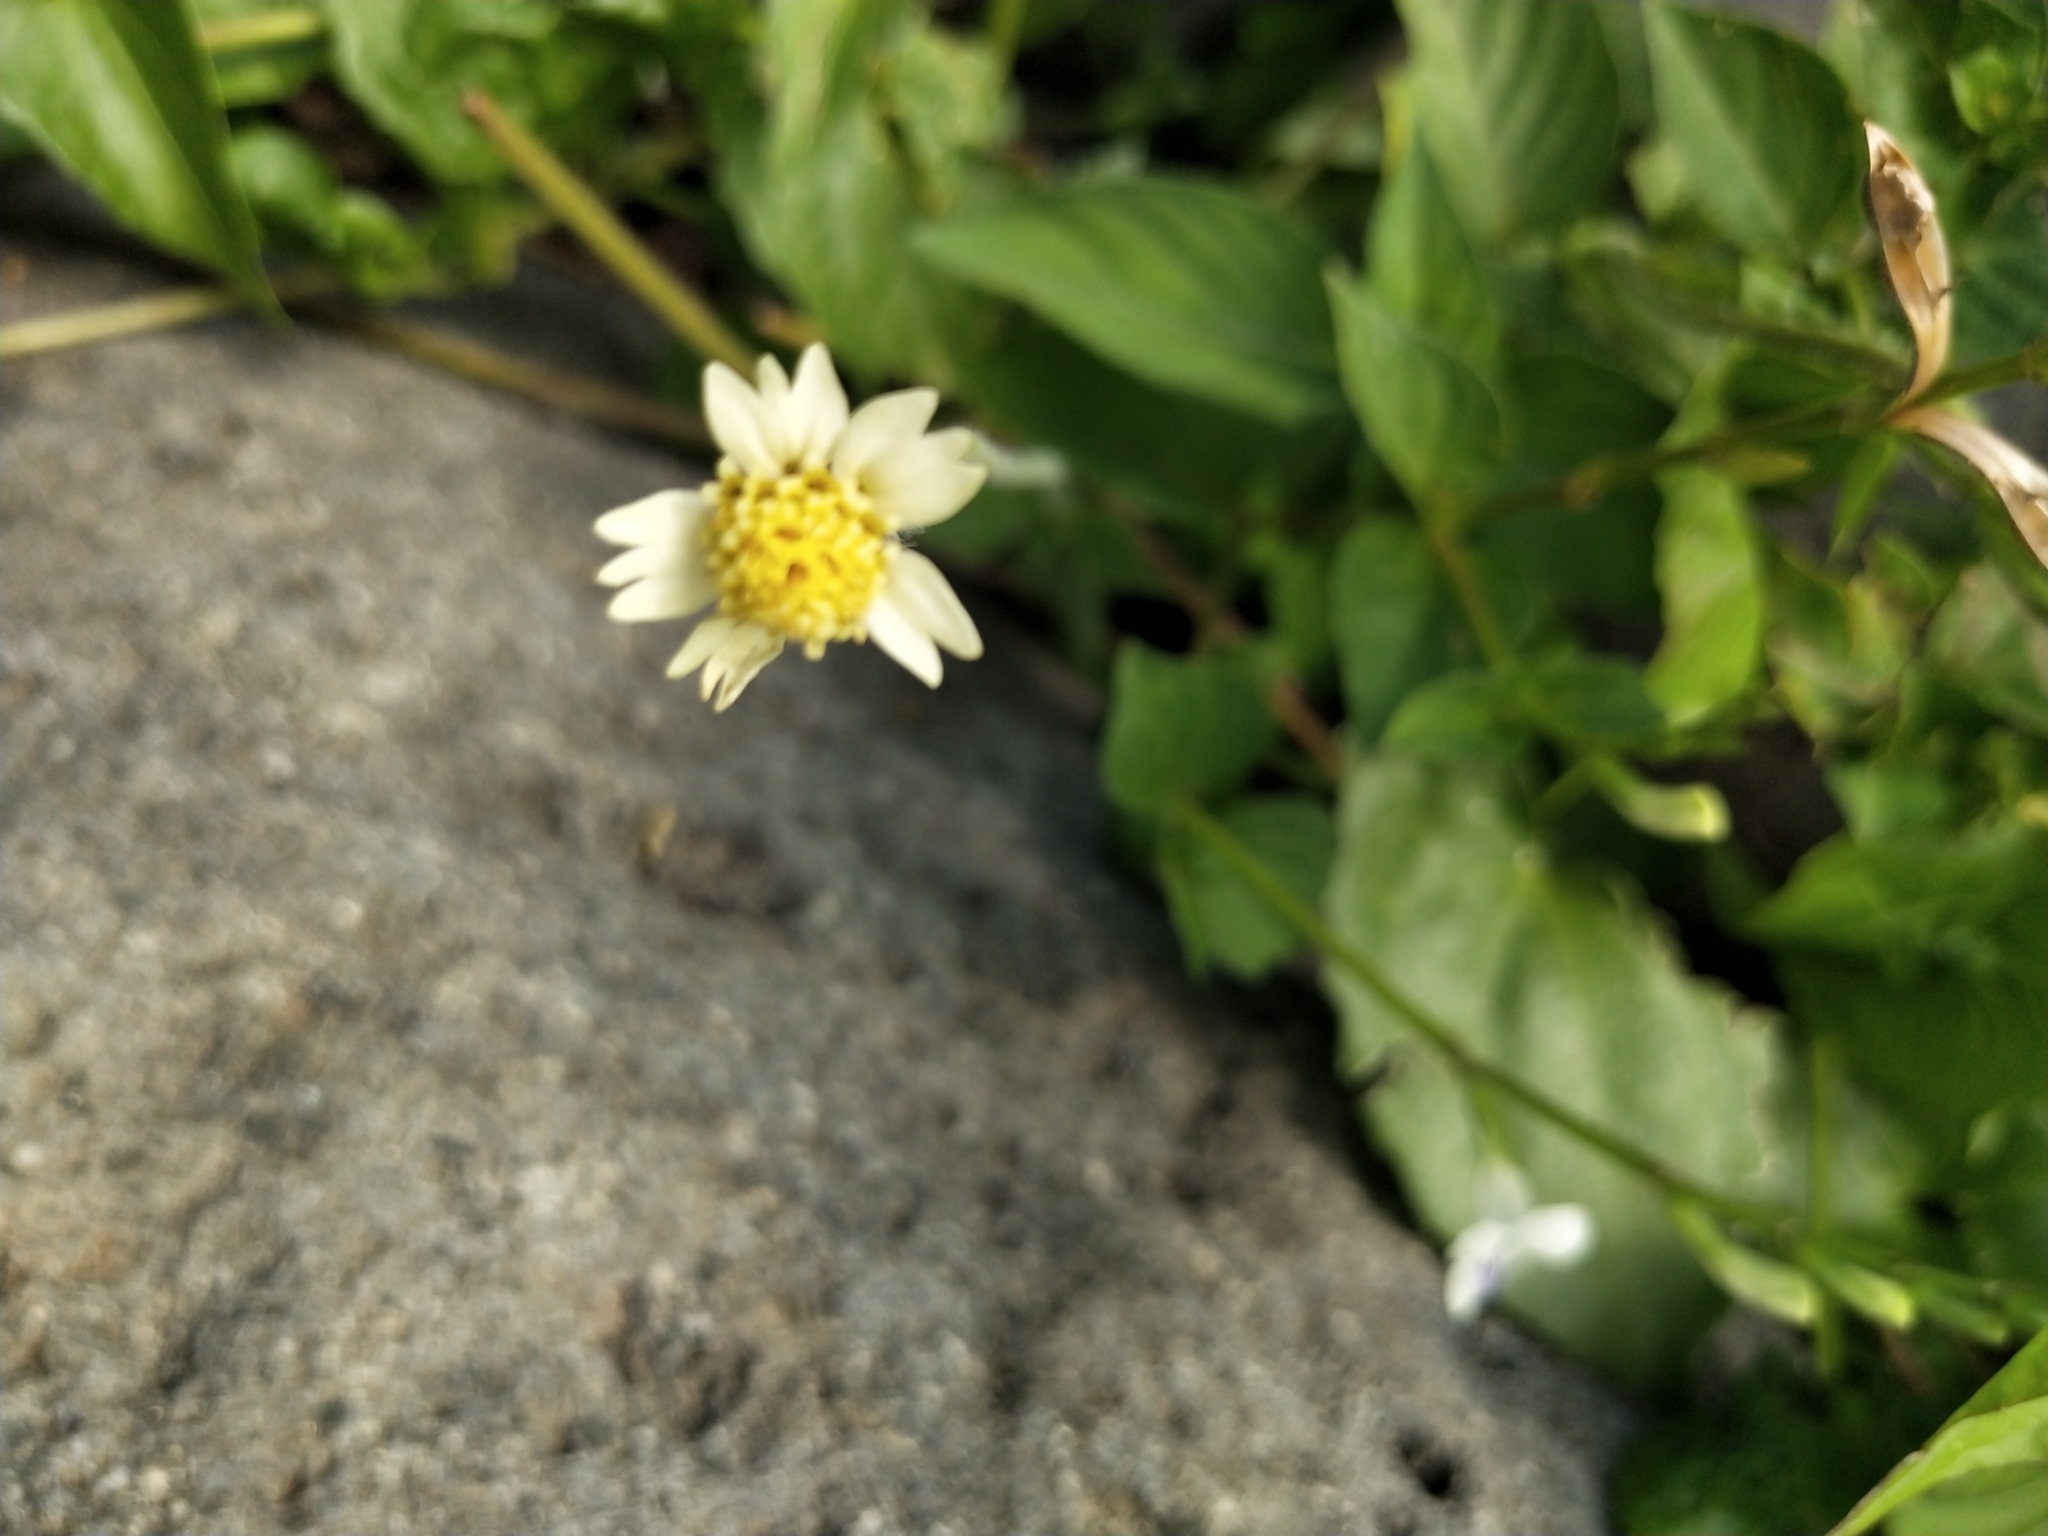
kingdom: Plantae
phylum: Tracheophyta
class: Magnoliopsida
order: Asterales
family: Asteraceae
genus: Tridax
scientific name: Tridax procumbens
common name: Coatbuttons
